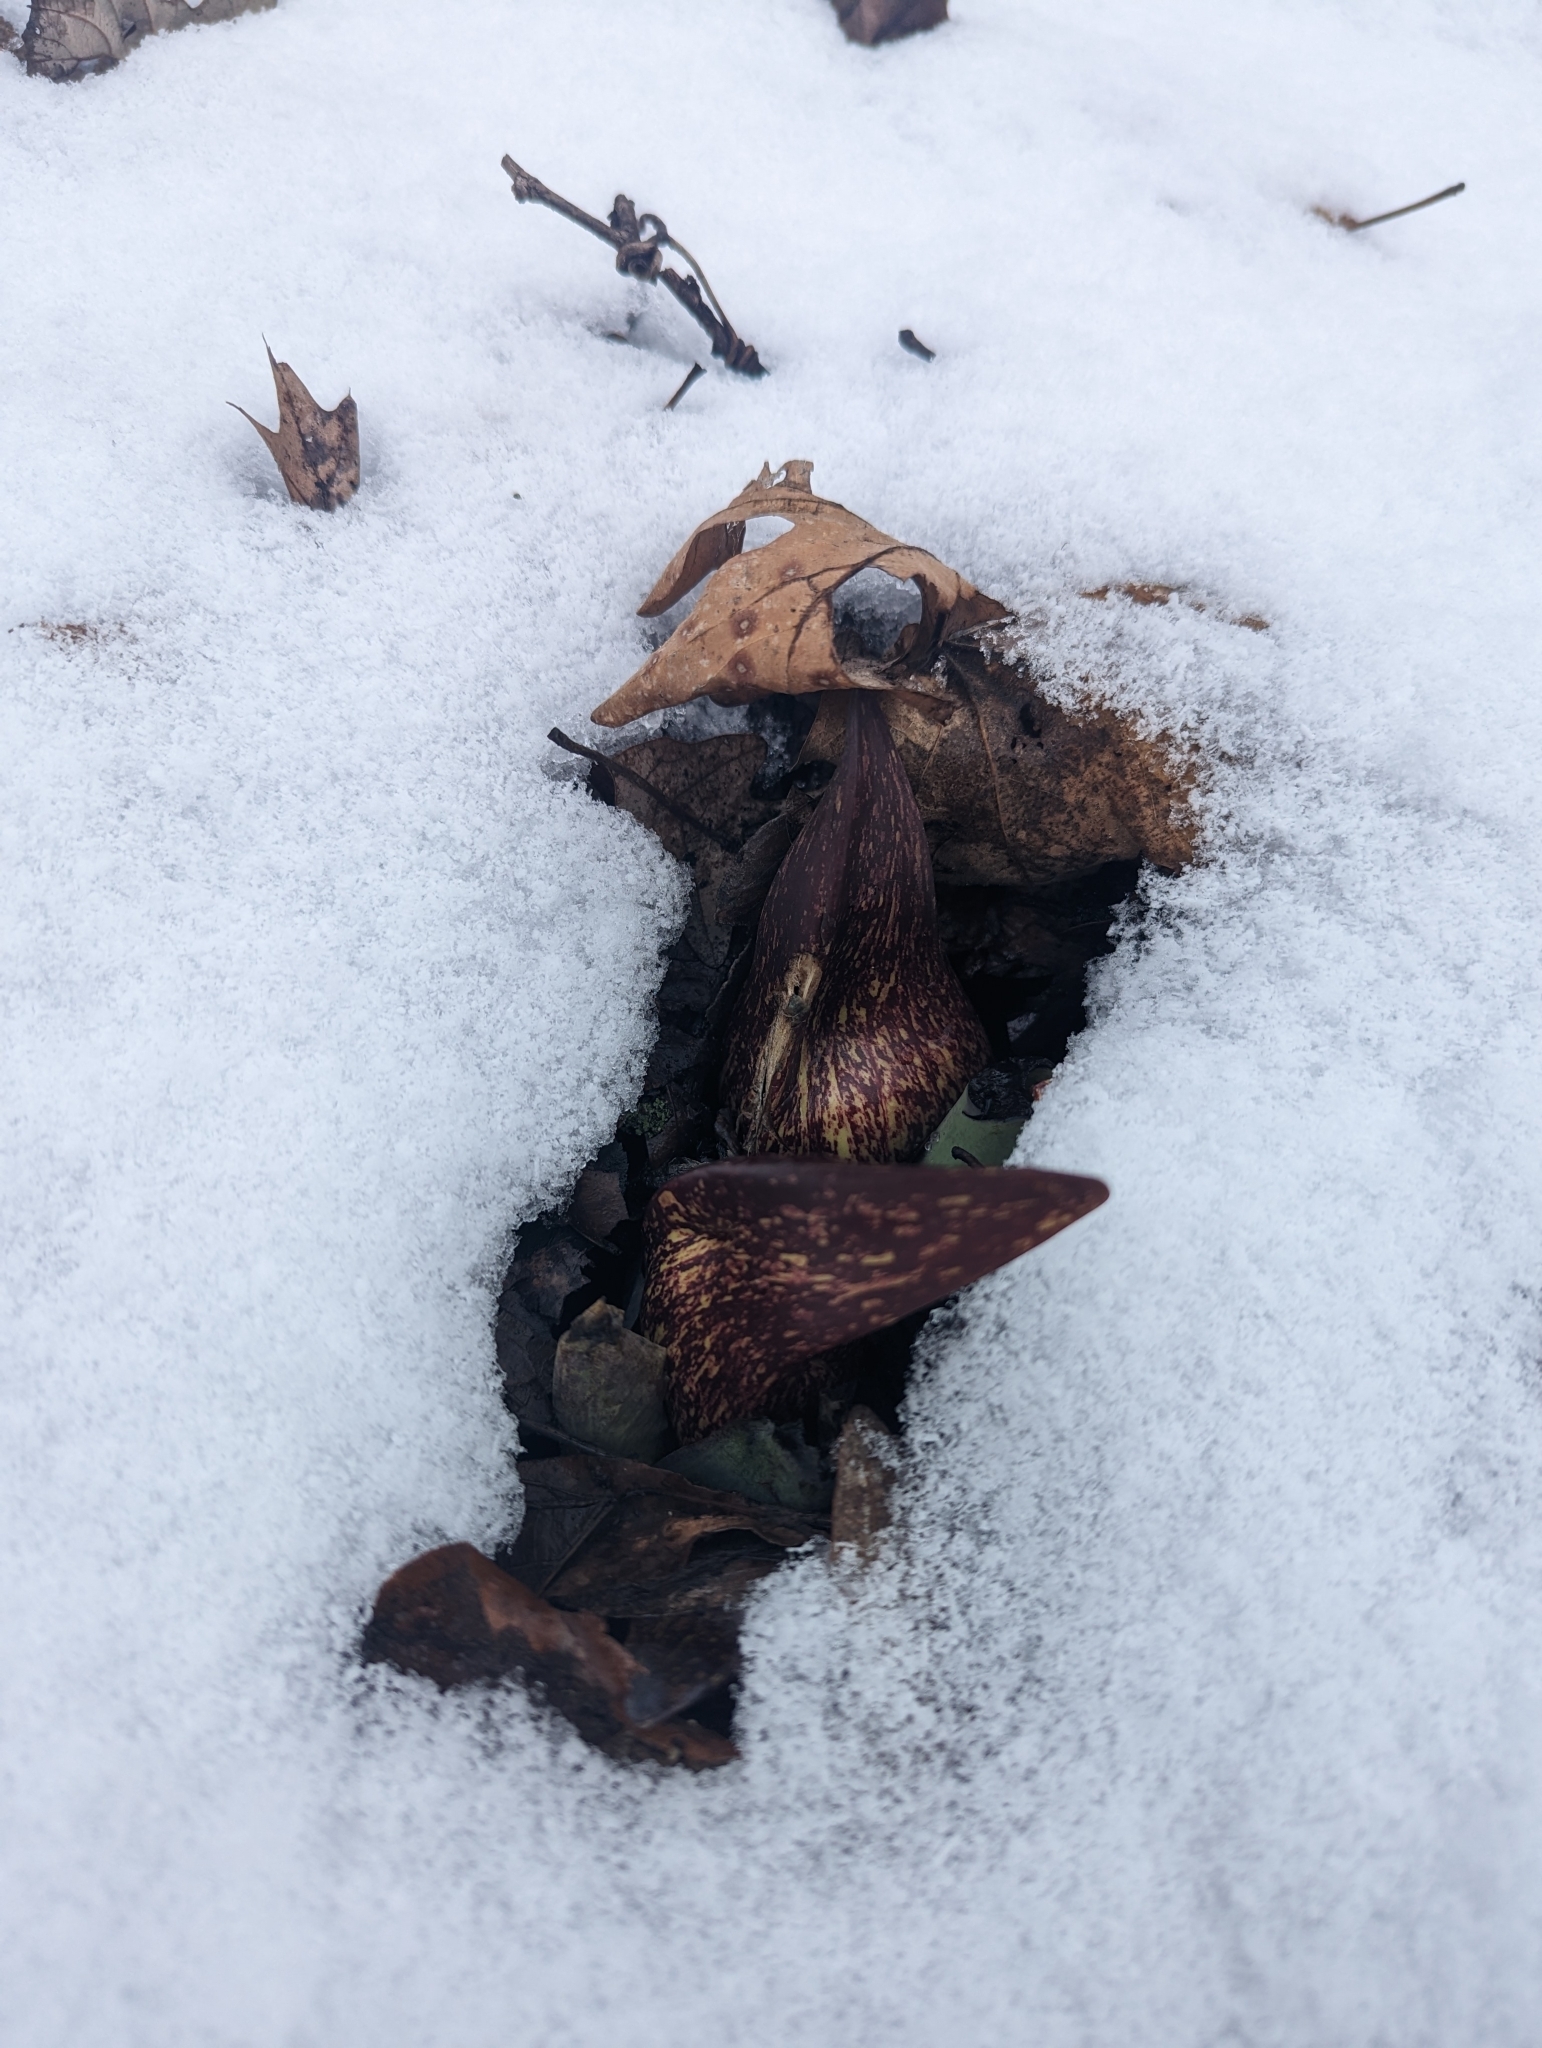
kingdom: Plantae
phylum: Tracheophyta
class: Liliopsida
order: Alismatales
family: Araceae
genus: Symplocarpus
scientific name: Symplocarpus foetidus
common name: Eastern skunk cabbage
